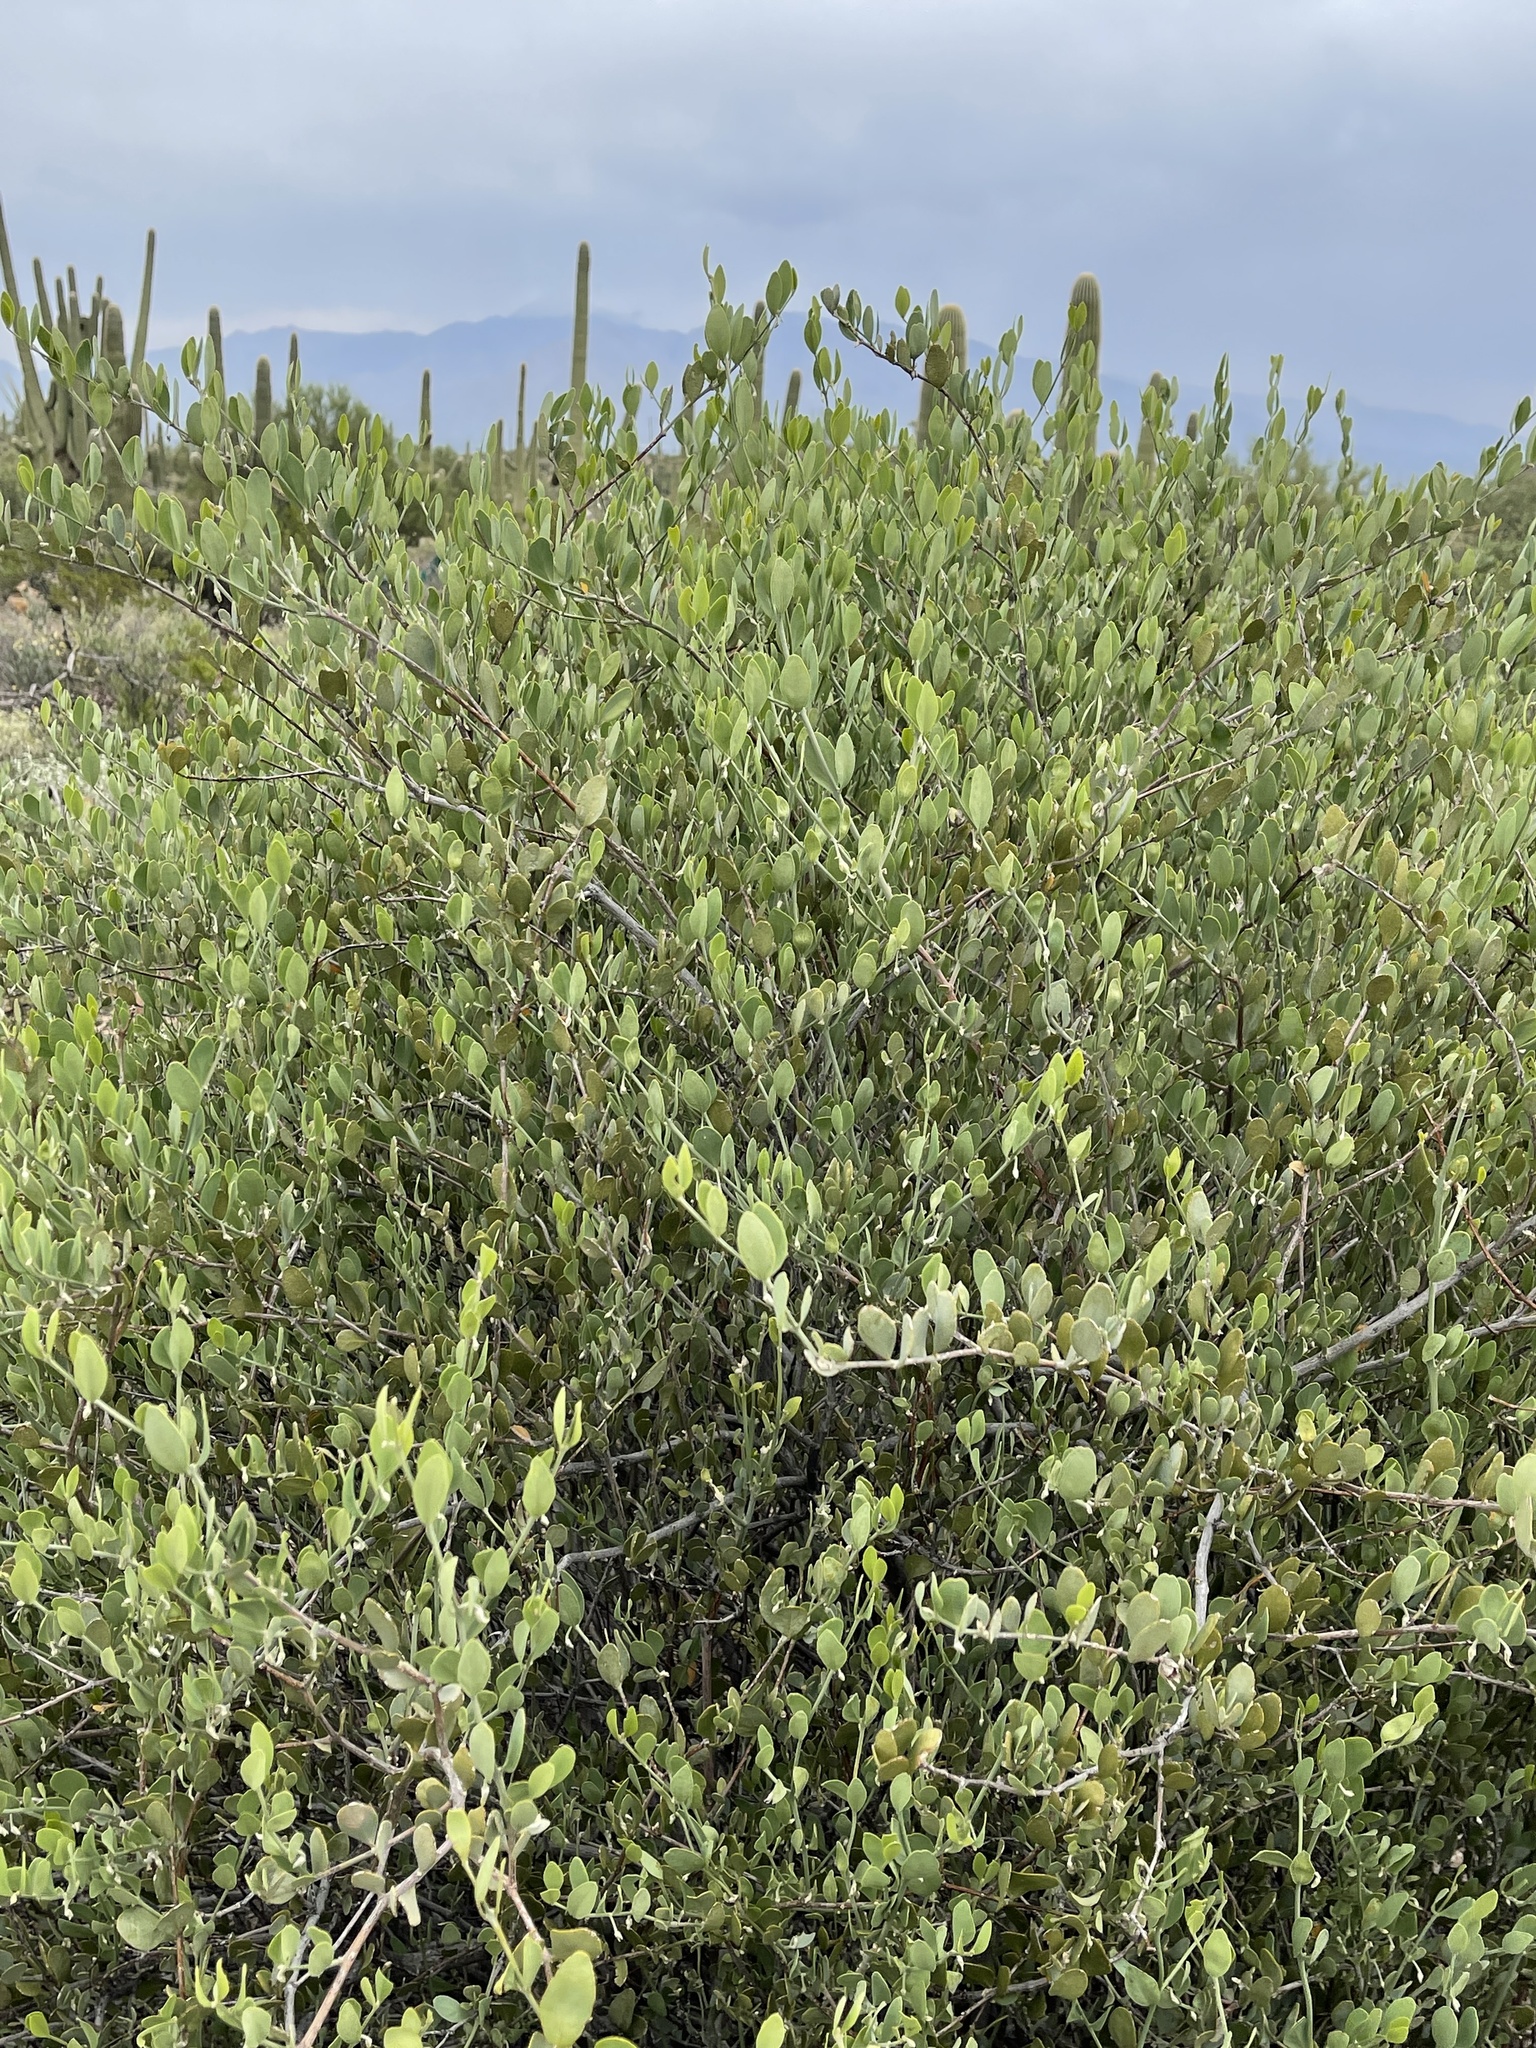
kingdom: Plantae
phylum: Tracheophyta
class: Magnoliopsida
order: Caryophyllales
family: Simmondsiaceae
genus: Simmondsia
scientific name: Simmondsia chinensis
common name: Jojoba
